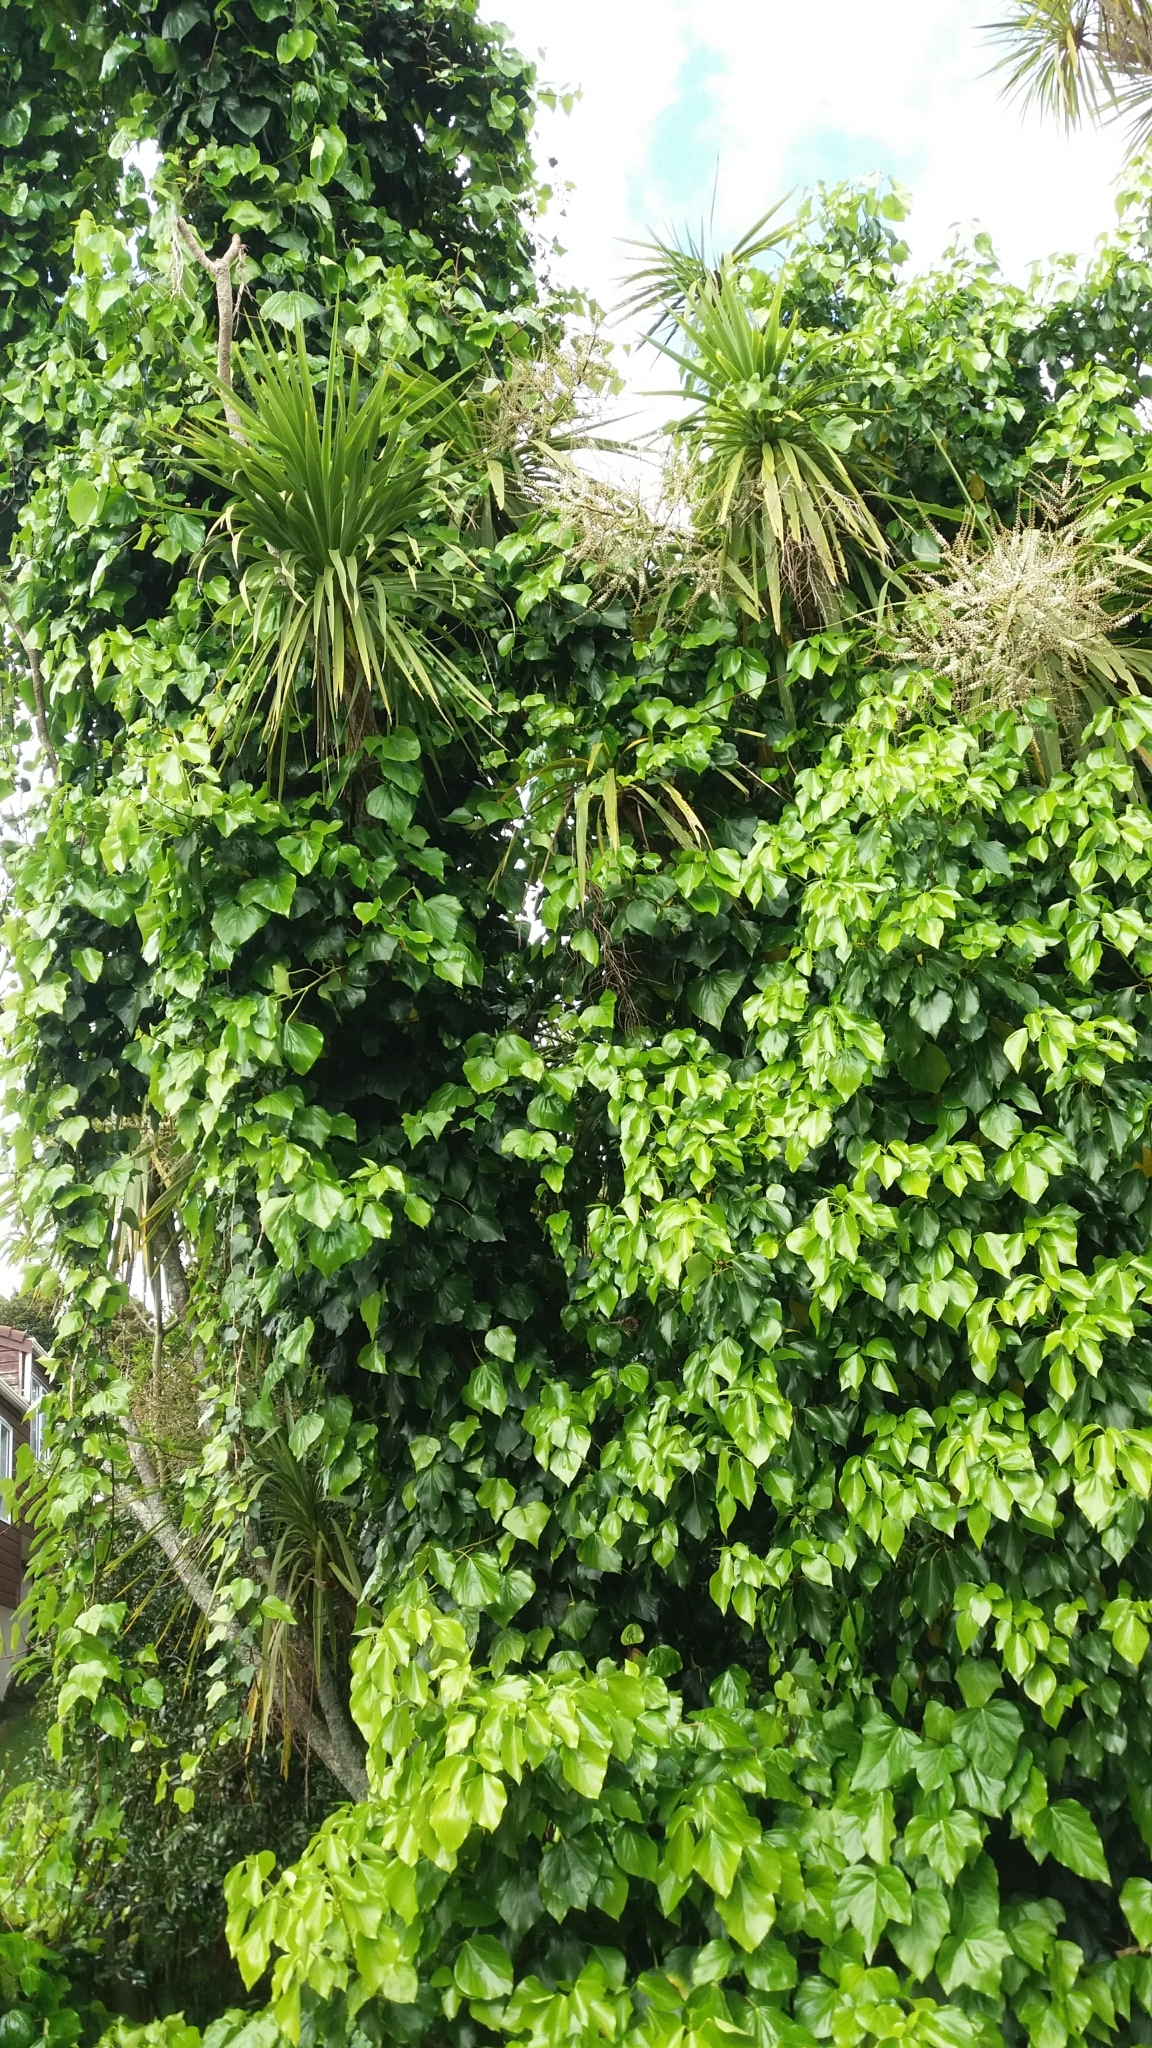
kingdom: Plantae
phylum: Tracheophyta
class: Magnoliopsida
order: Apiales
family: Araliaceae
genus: Hedera
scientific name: Hedera helix
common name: Ivy
